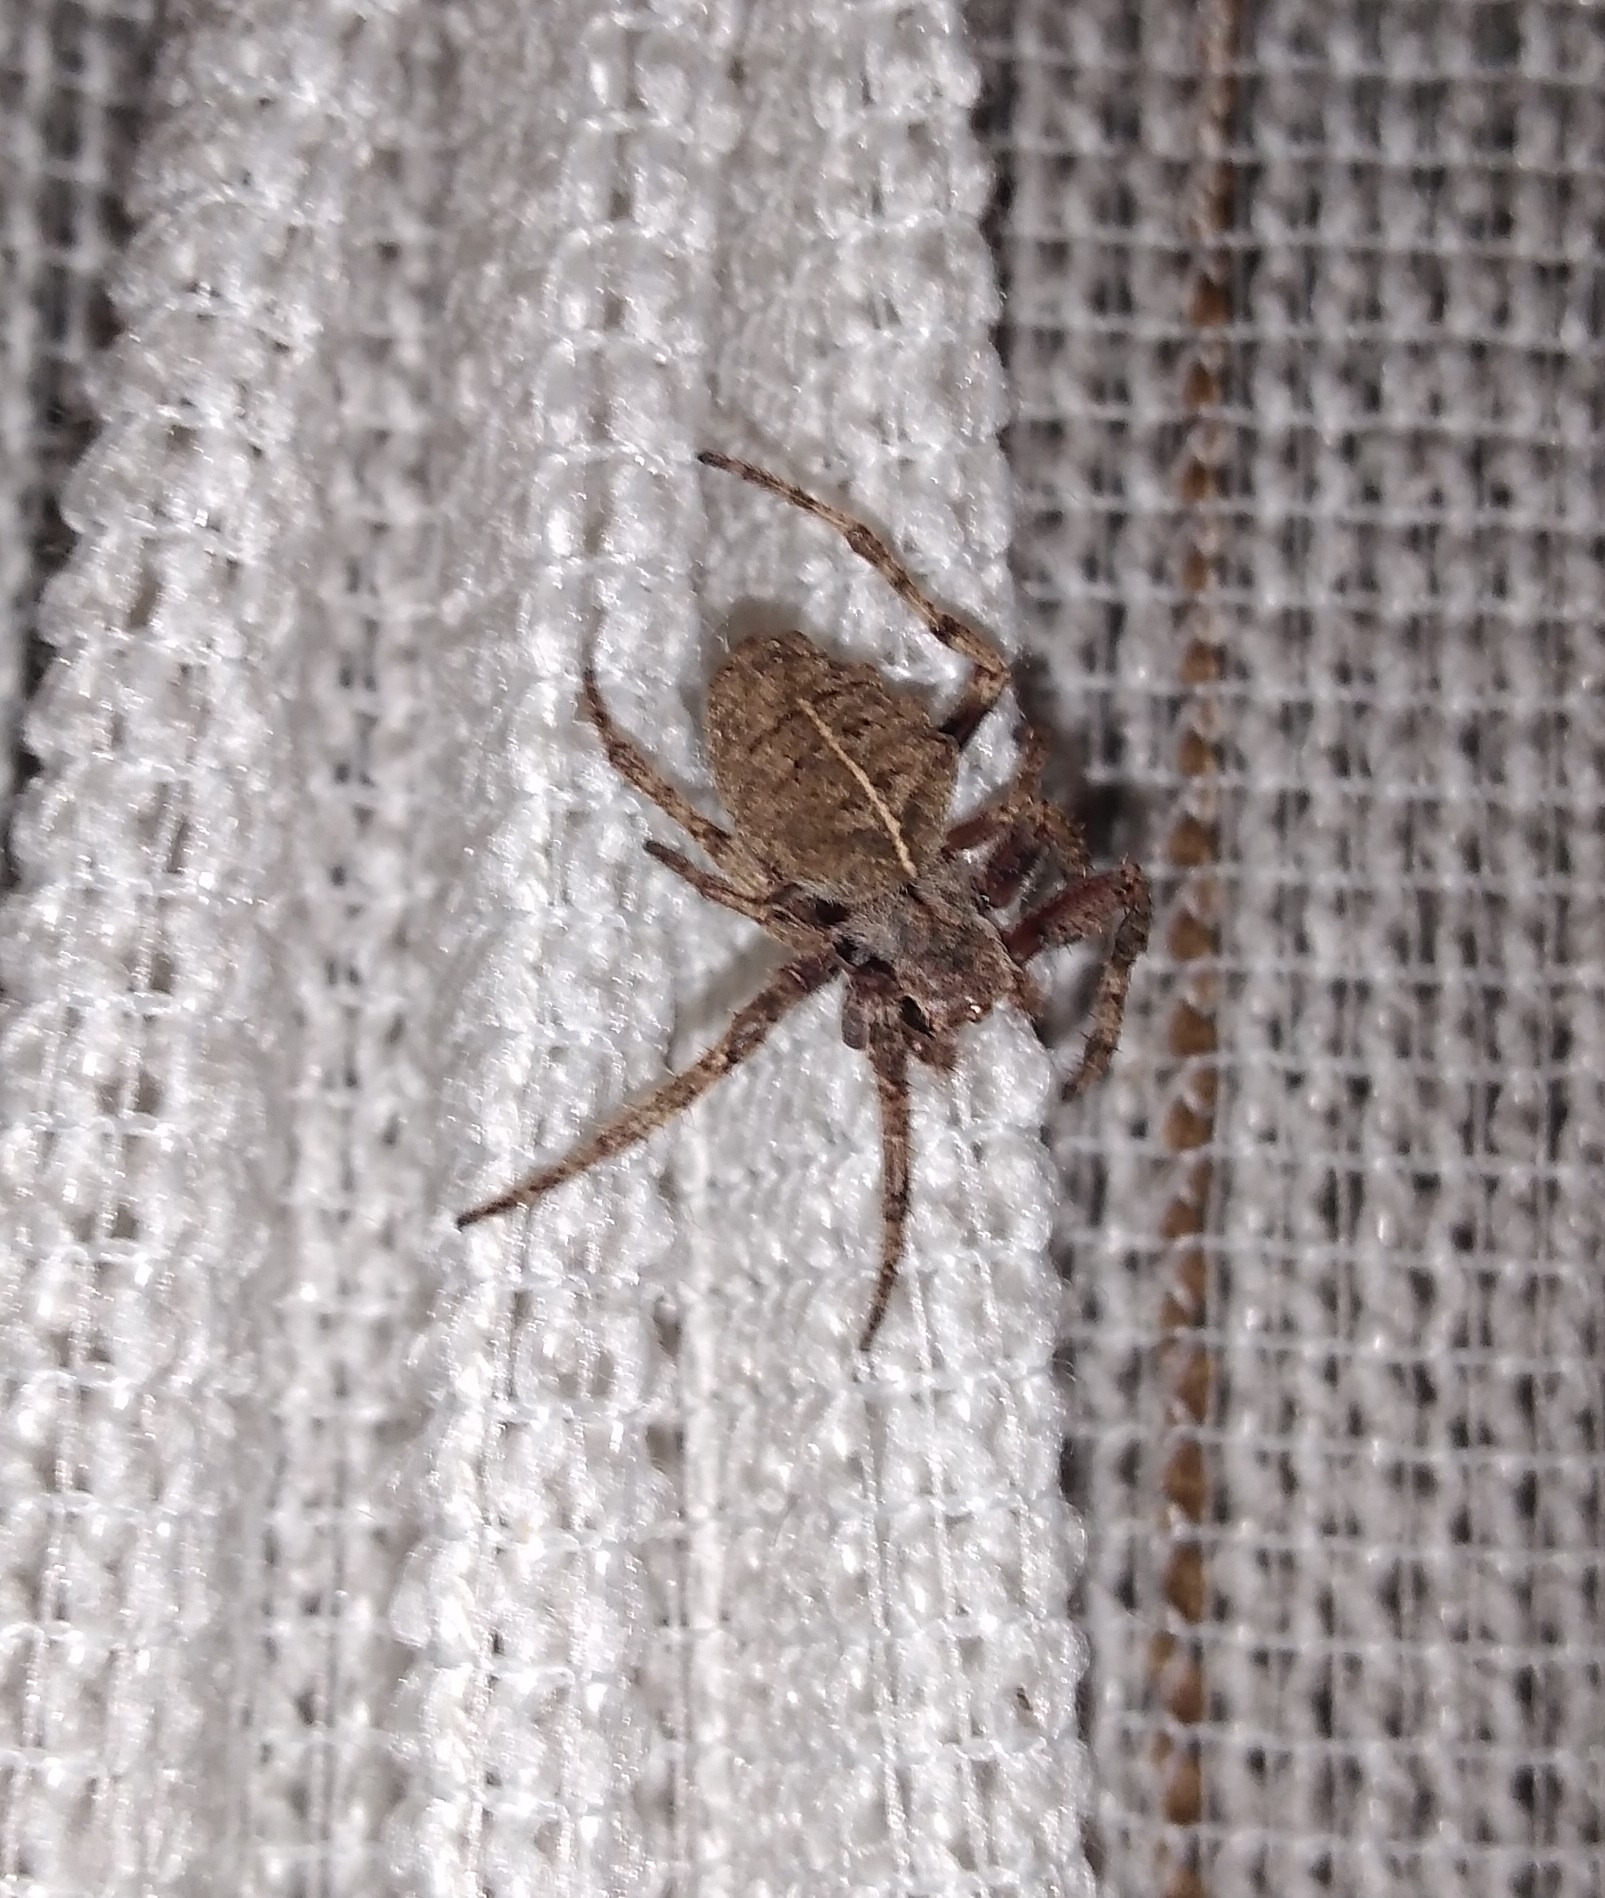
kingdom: Animalia
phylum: Arthropoda
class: Arachnida
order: Araneae
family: Araneidae
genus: Parawixia
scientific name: Parawixia audax
